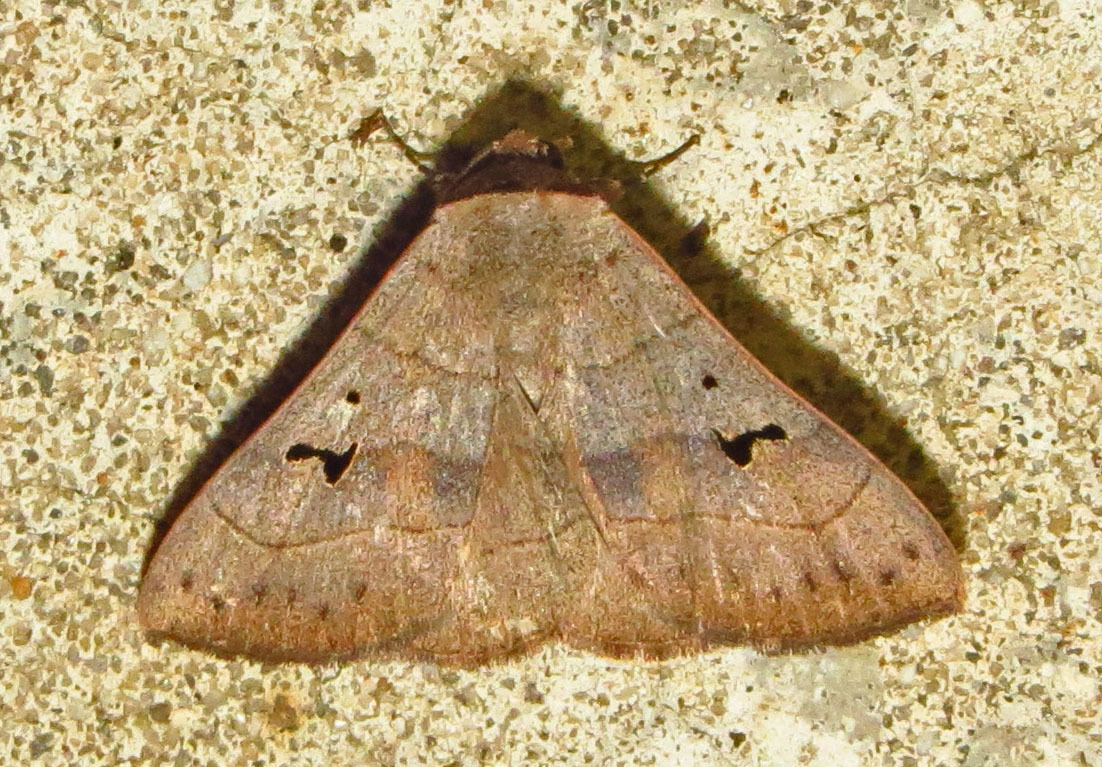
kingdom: Animalia
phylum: Arthropoda
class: Insecta
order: Lepidoptera
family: Erebidae
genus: Panopoda
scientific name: Panopoda carneicosta
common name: Brown panopoda moth
